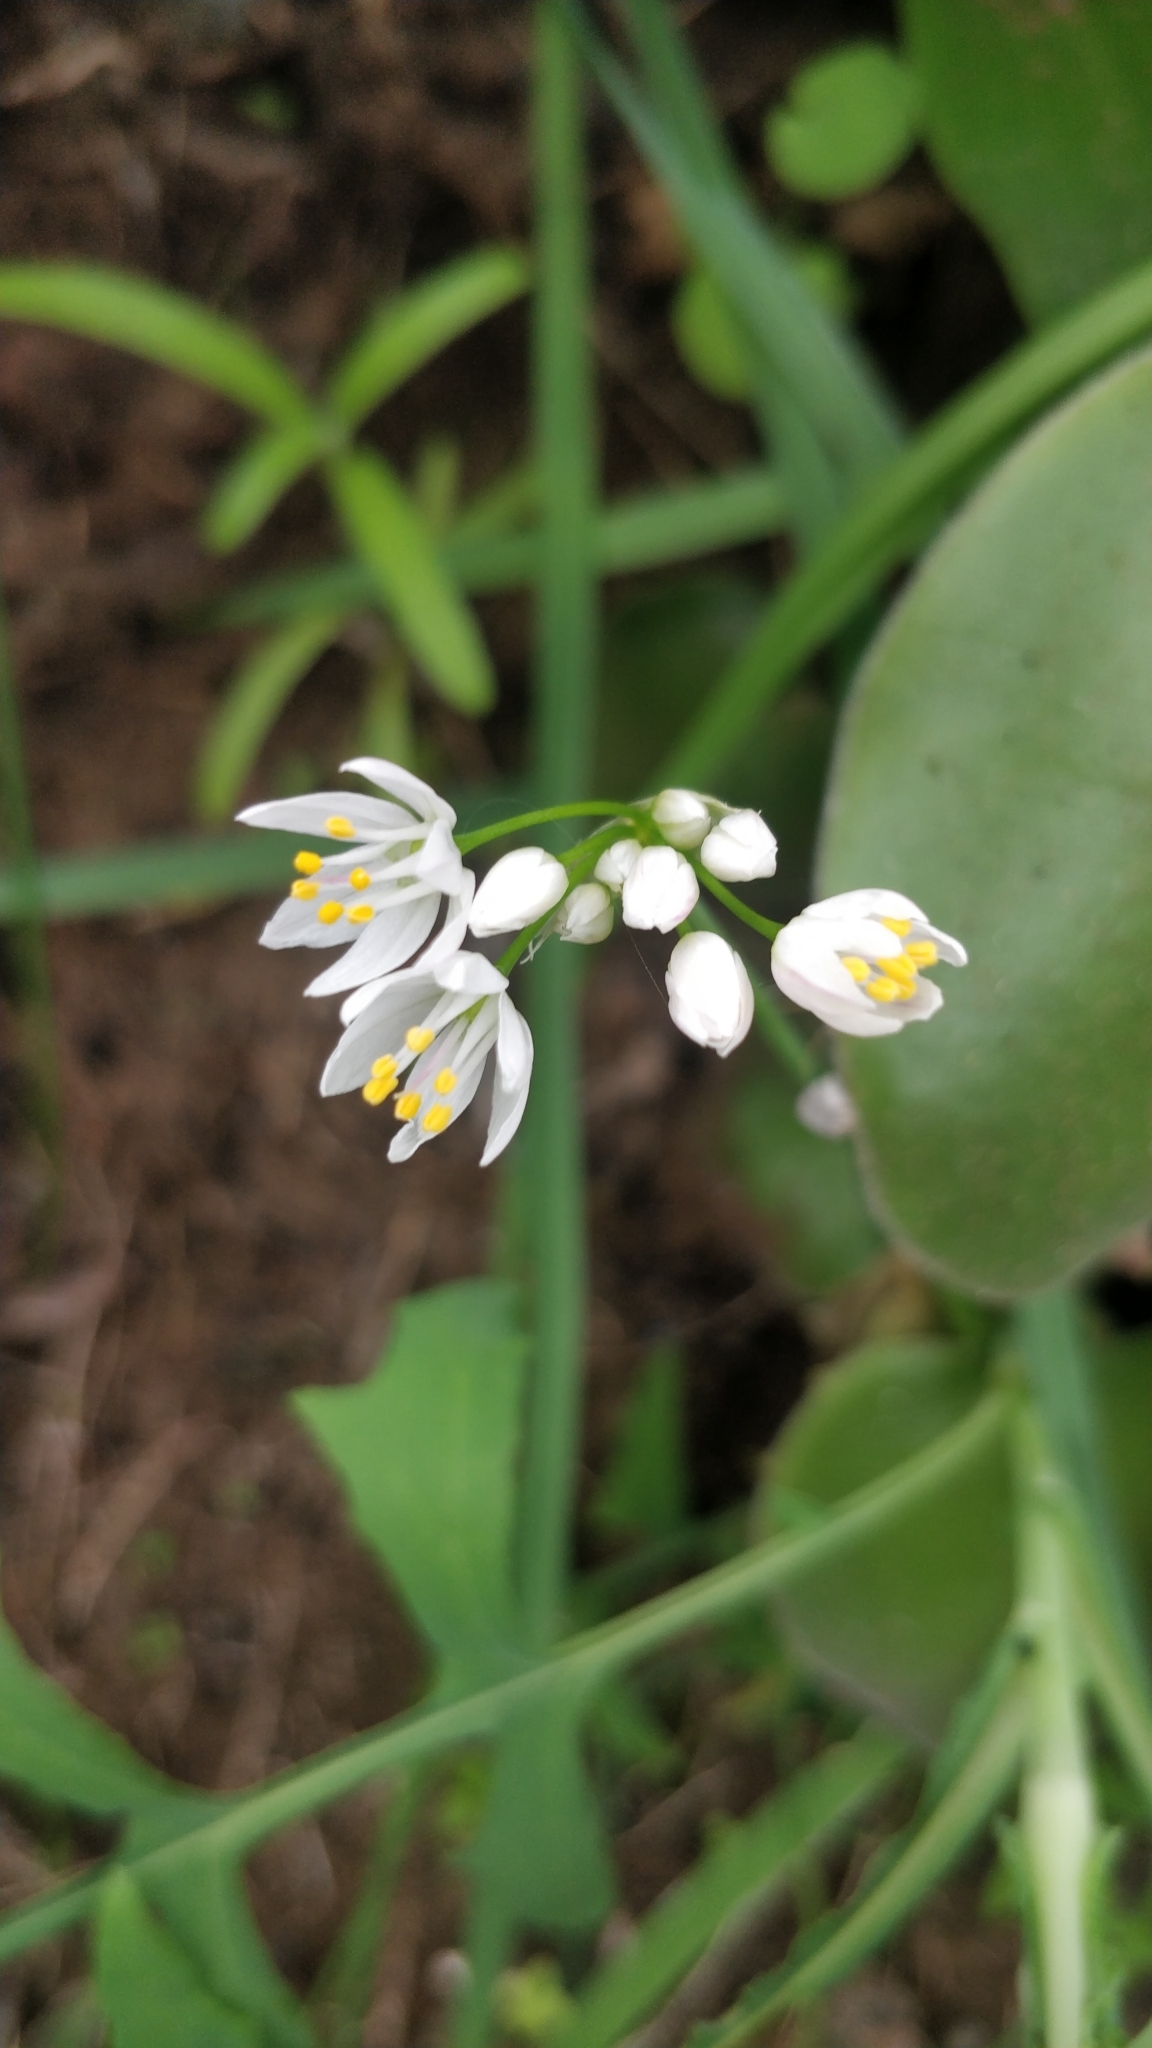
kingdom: Plantae
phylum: Tracheophyta
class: Liliopsida
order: Asparagales
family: Amaryllidaceae
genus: Allium
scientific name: Allium canariense
